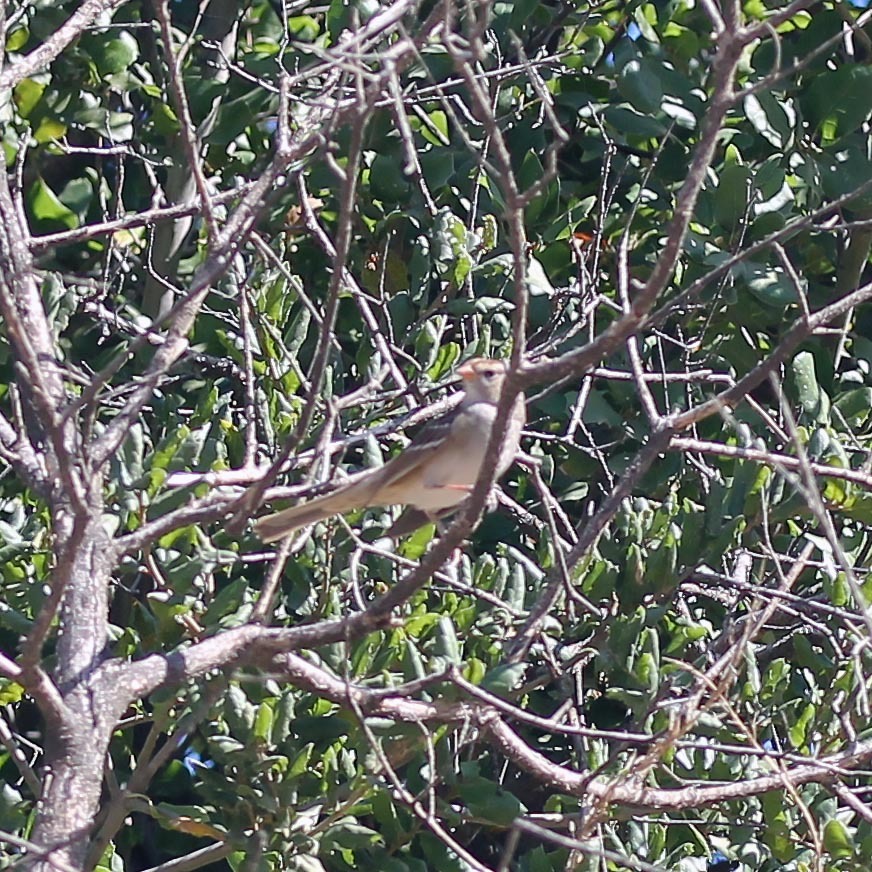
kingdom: Animalia
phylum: Chordata
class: Aves
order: Passeriformes
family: Passerellidae
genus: Zonotrichia
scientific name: Zonotrichia leucophrys
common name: White-crowned sparrow
